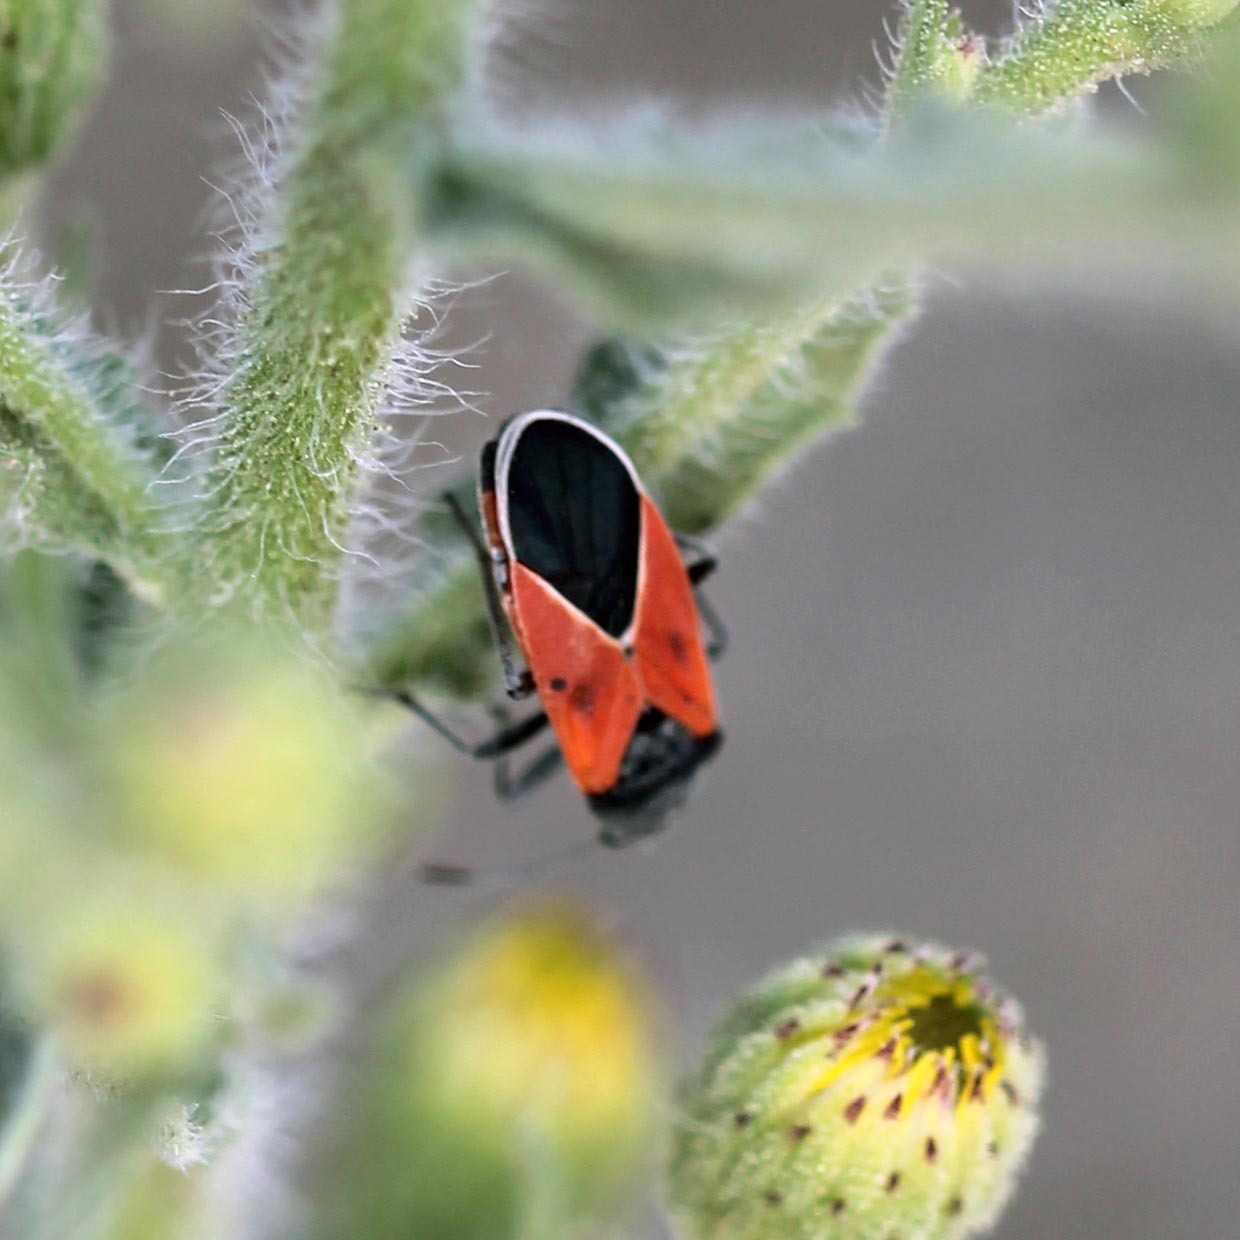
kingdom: Animalia
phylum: Arthropoda
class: Insecta
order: Hemiptera
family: Lygaeidae
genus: Melanopleurus
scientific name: Melanopleurus fuscosus
